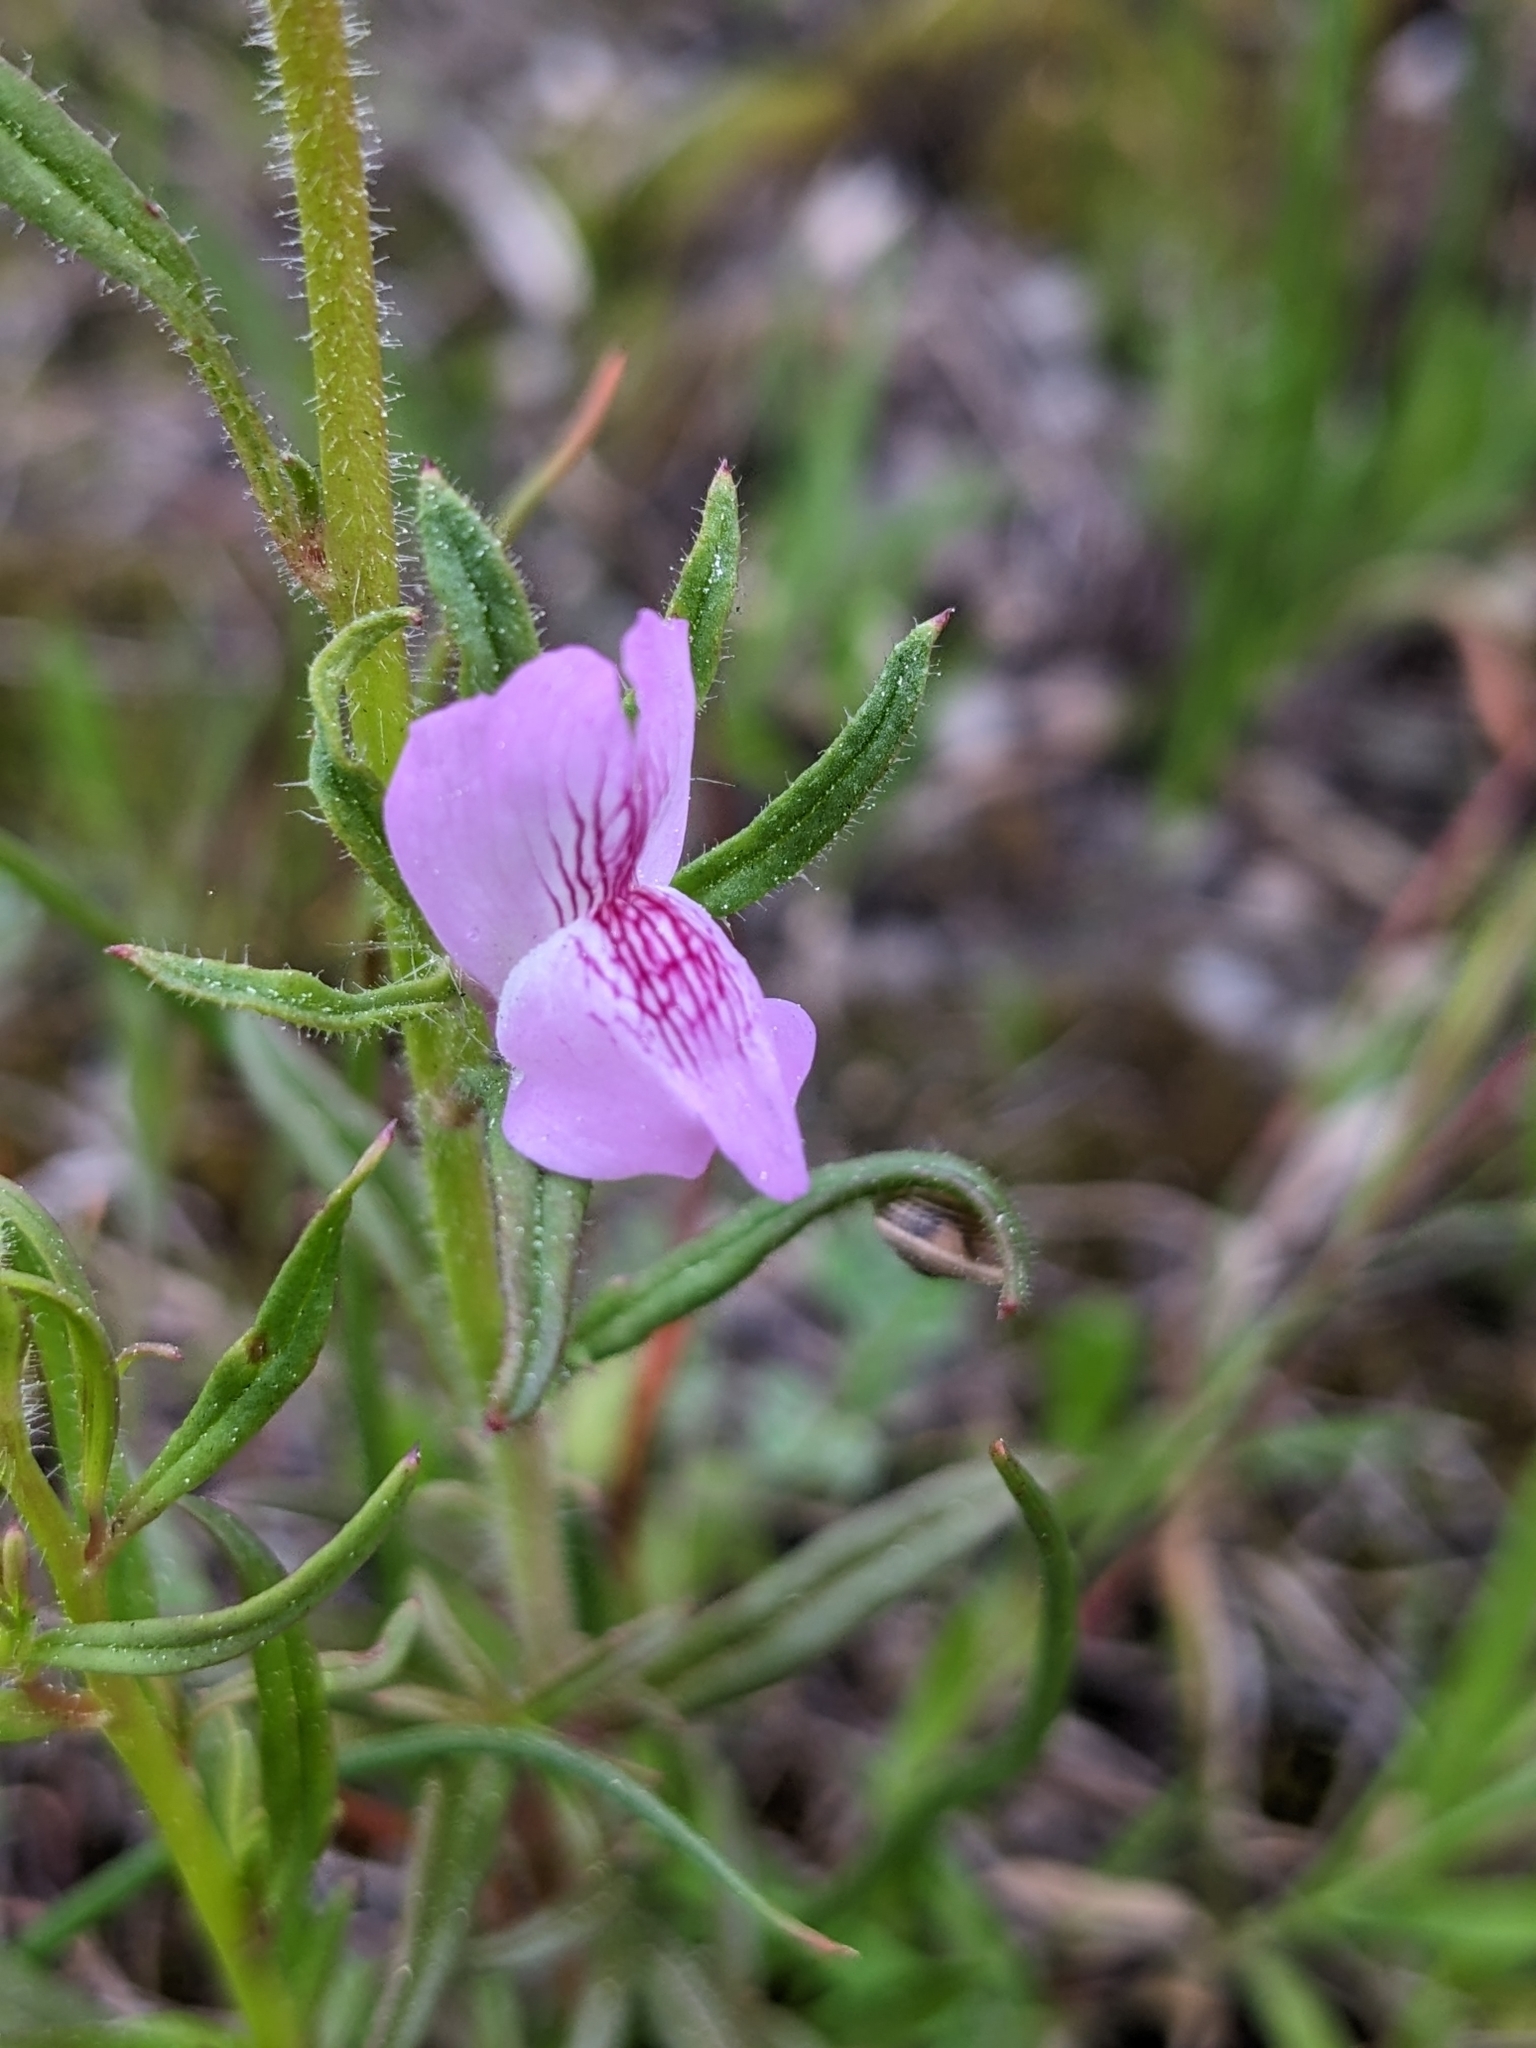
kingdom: Plantae
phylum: Tracheophyta
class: Magnoliopsida
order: Lamiales
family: Plantaginaceae
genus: Misopates
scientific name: Misopates orontium
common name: Weasel's-snout
